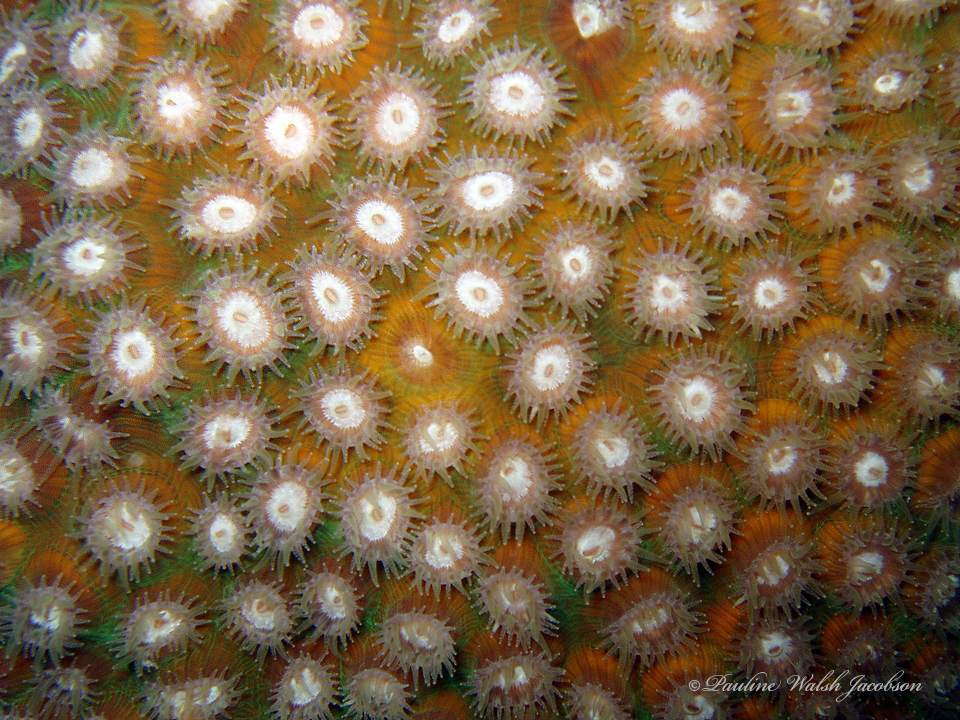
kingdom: Animalia
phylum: Cnidaria
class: Anthozoa
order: Scleractinia
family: Montastraeidae
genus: Montastraea
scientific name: Montastraea cavernosa
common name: Great star coral
